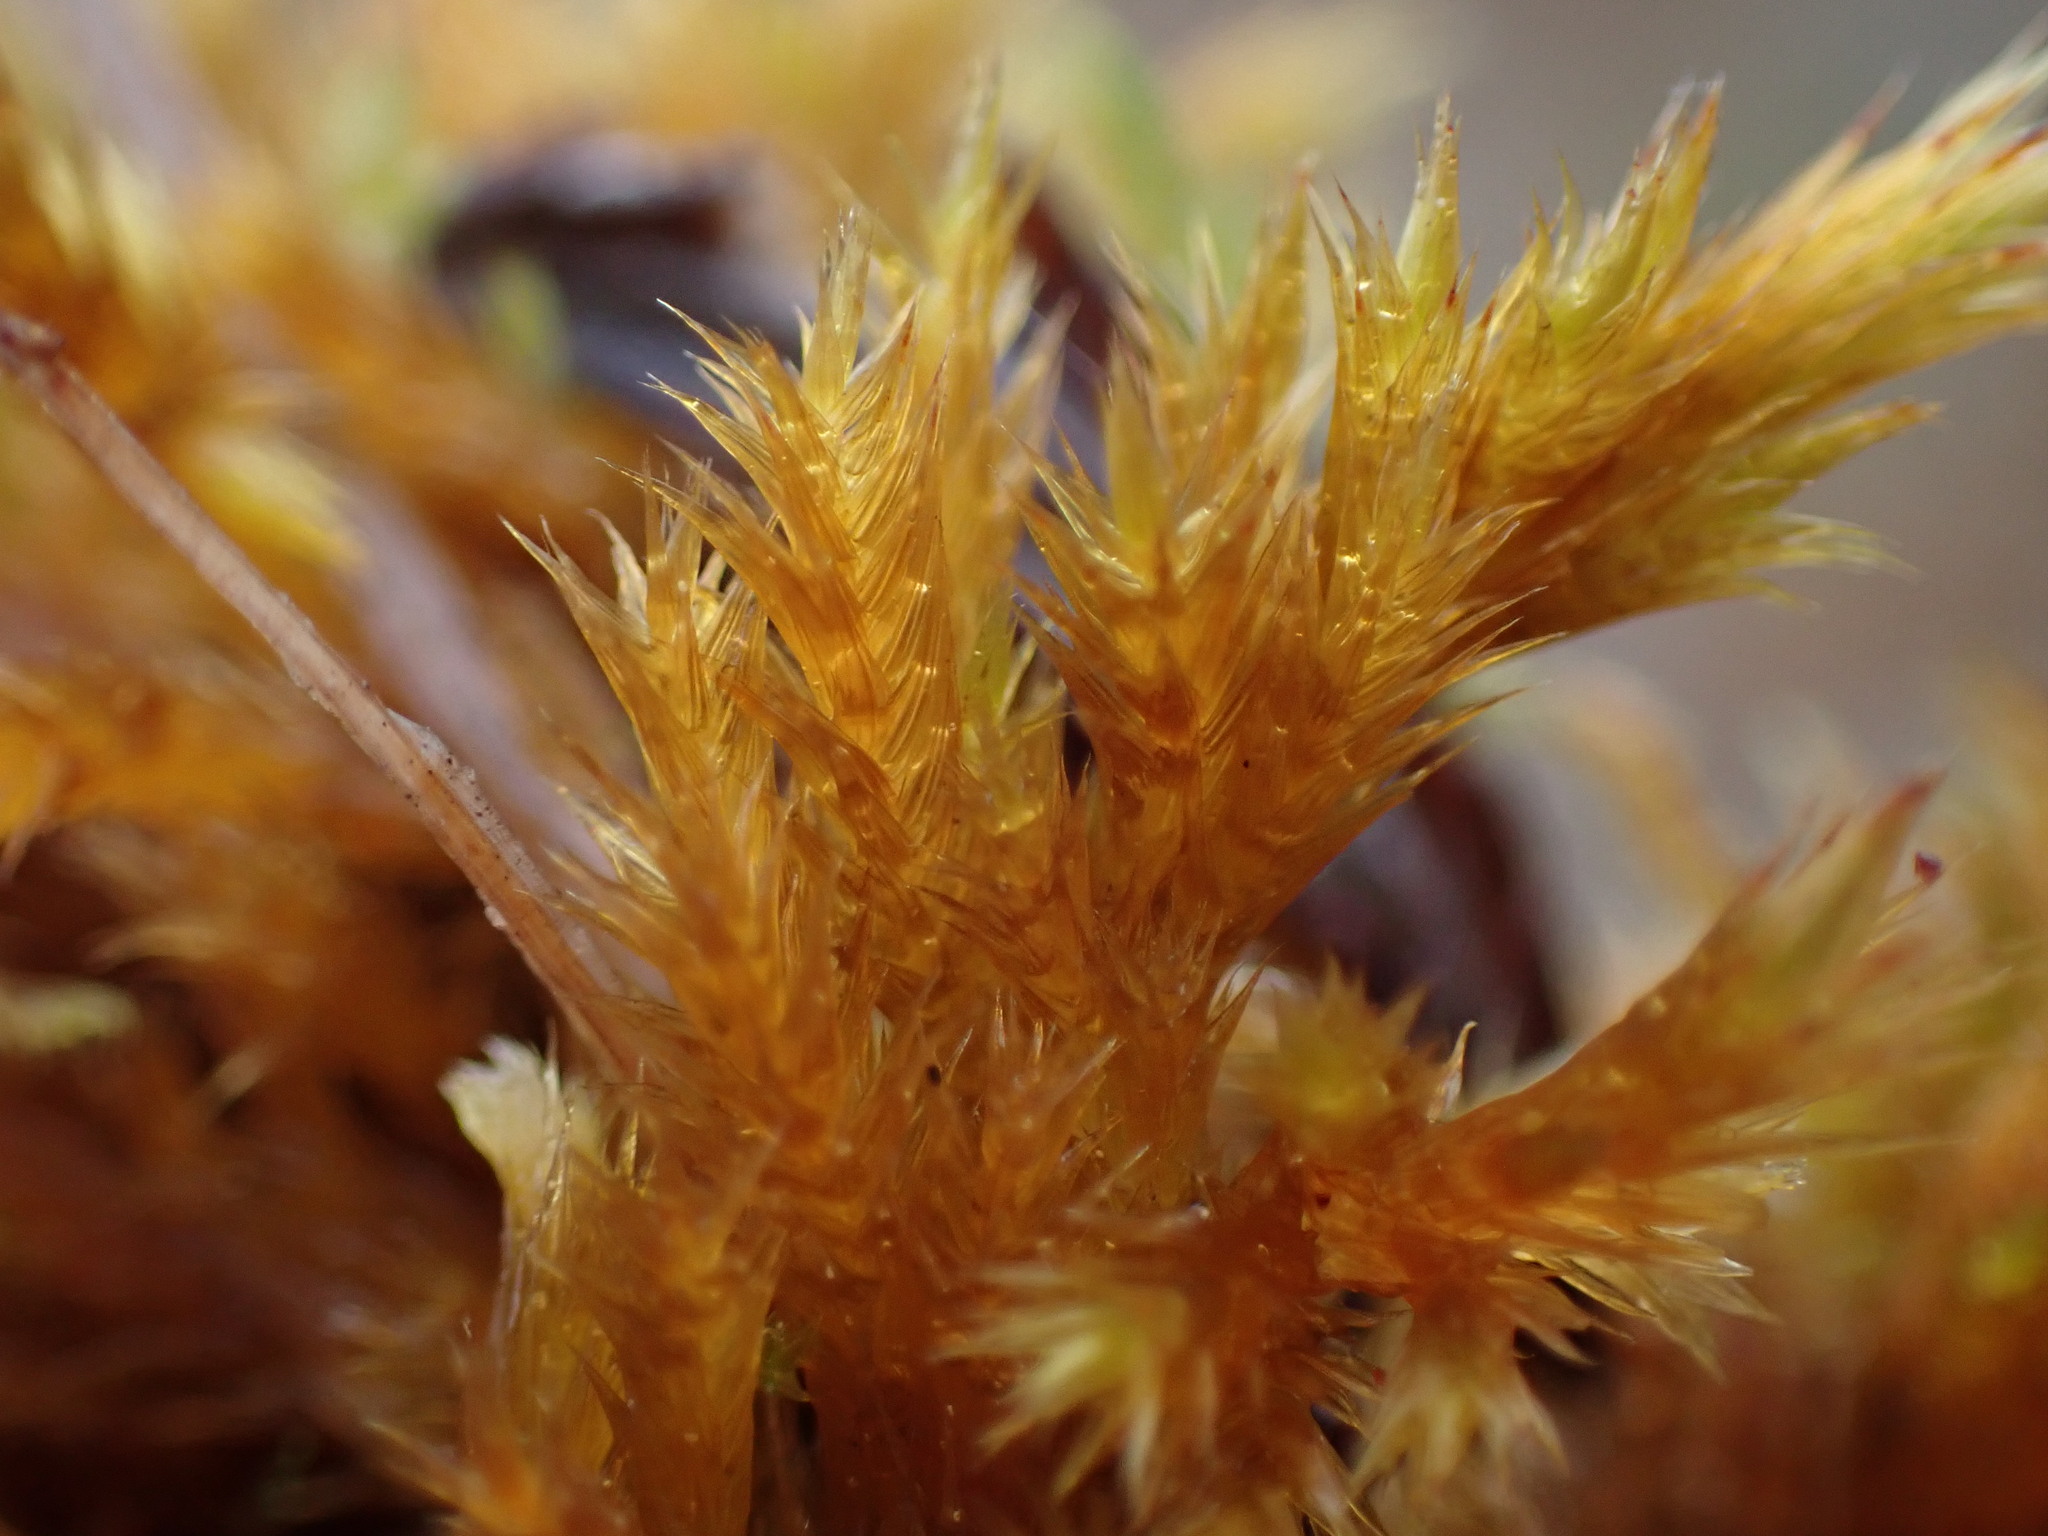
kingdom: Plantae
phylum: Bryophyta
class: Bryopsida
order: Hypnales
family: Amblystegiaceae
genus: Tomentypnum
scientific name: Tomentypnum nitens
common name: Golden fuzzy fen moss
